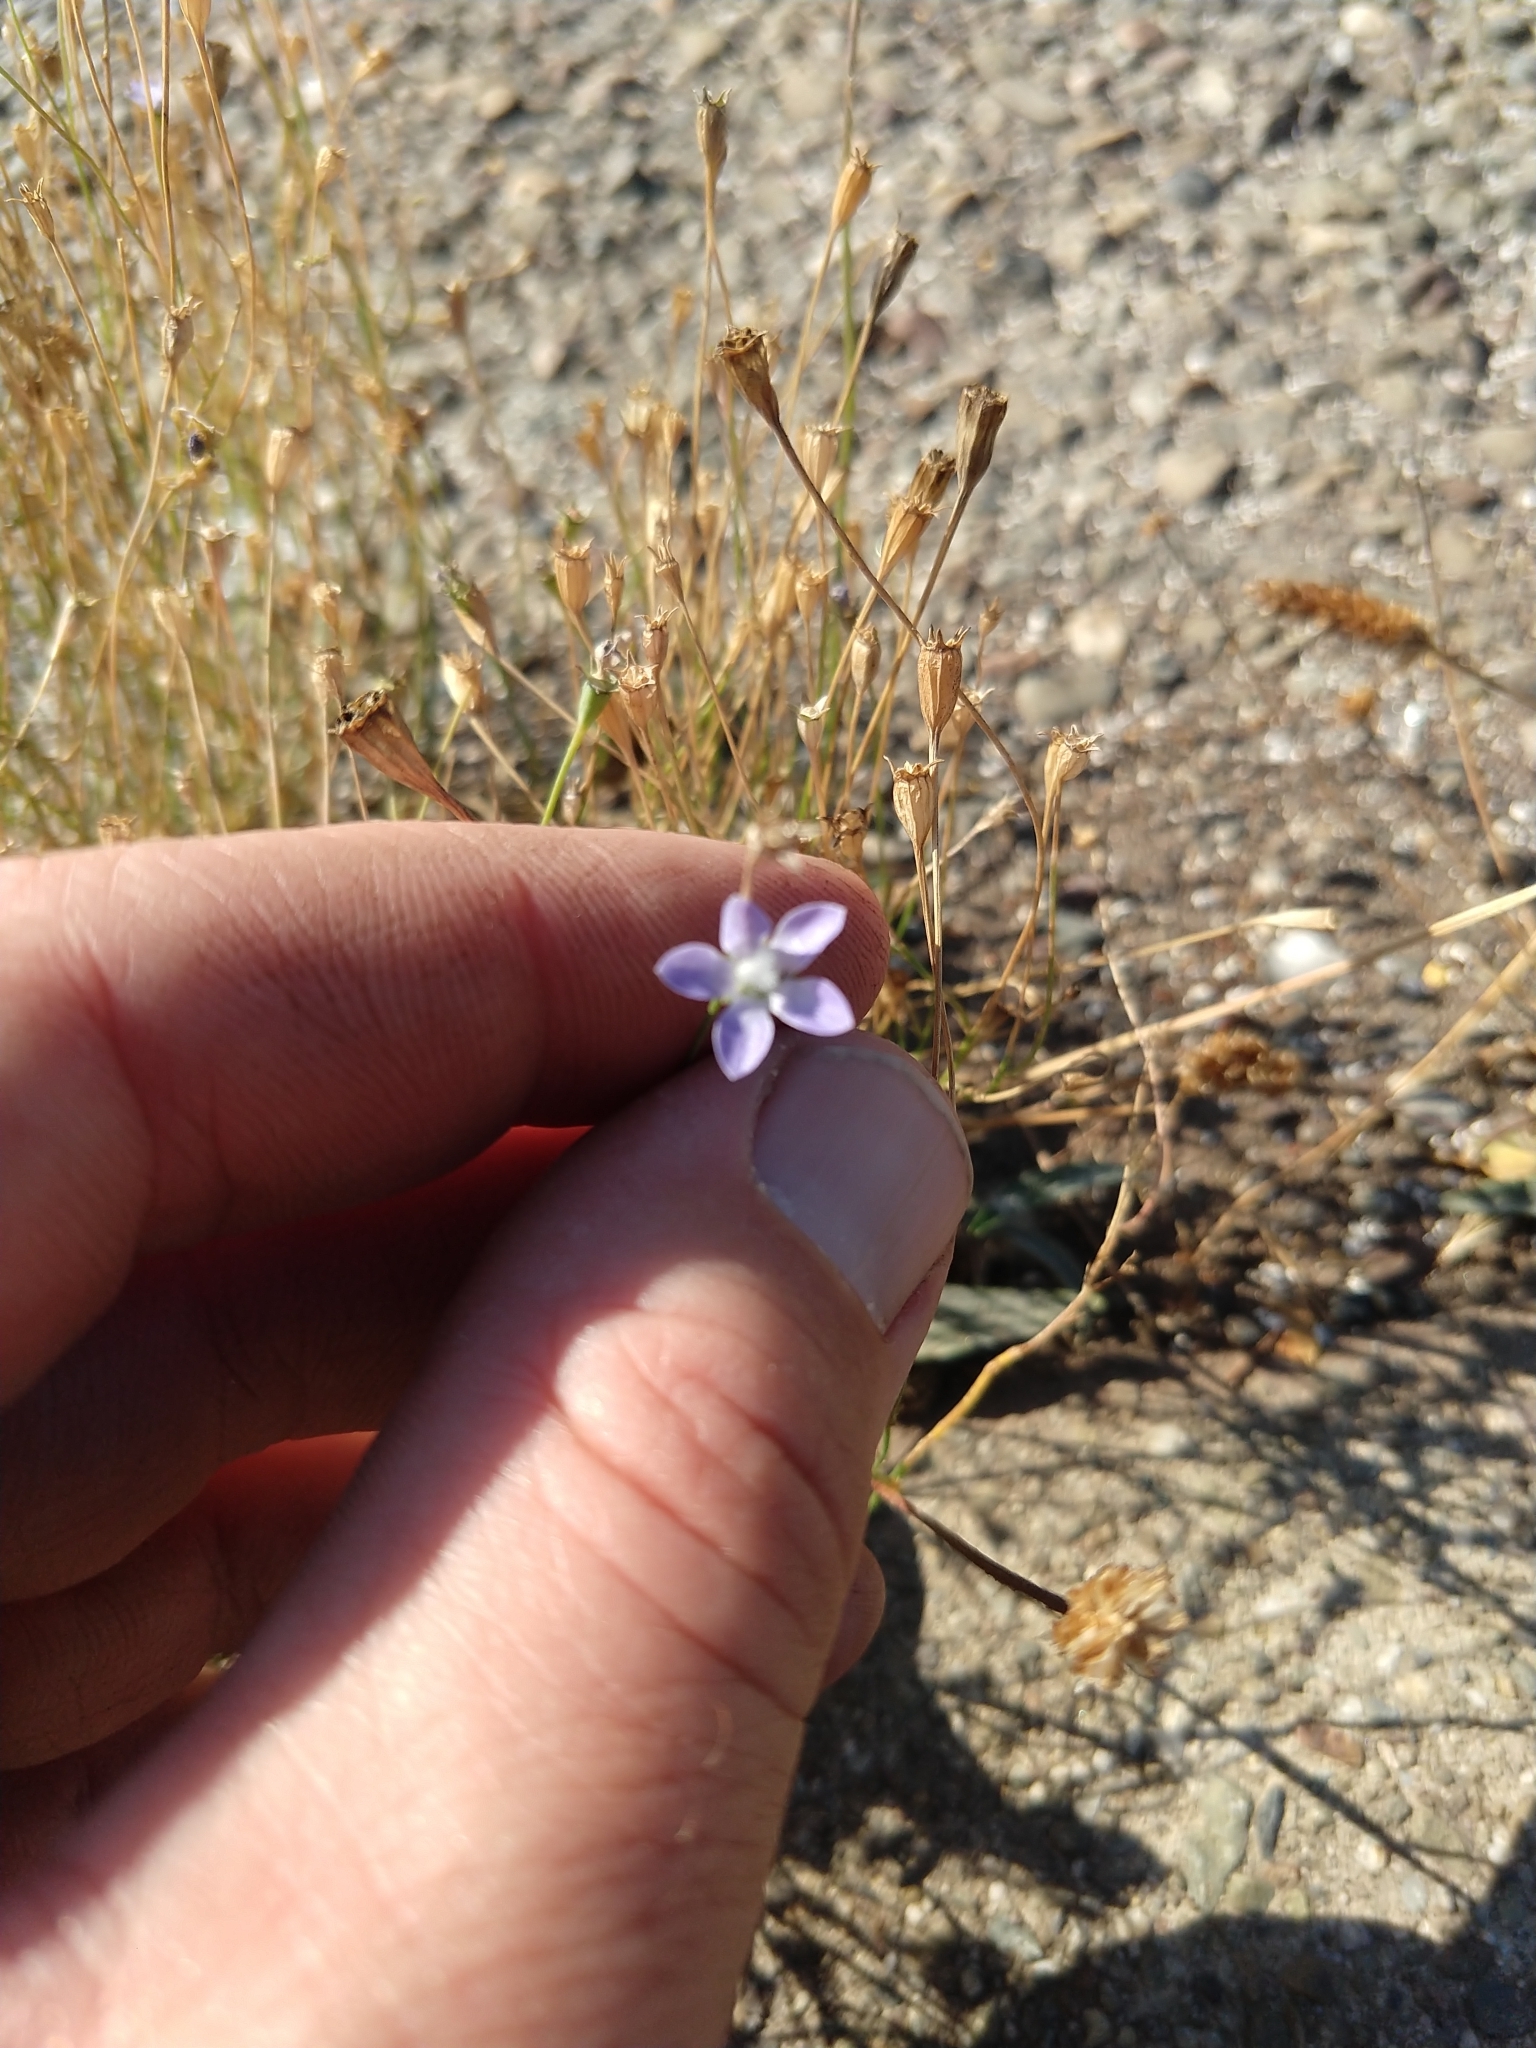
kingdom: Plantae
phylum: Tracheophyta
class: Magnoliopsida
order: Asterales
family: Campanulaceae
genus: Wahlenbergia
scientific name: Wahlenbergia marginata
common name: Southern rockbell
